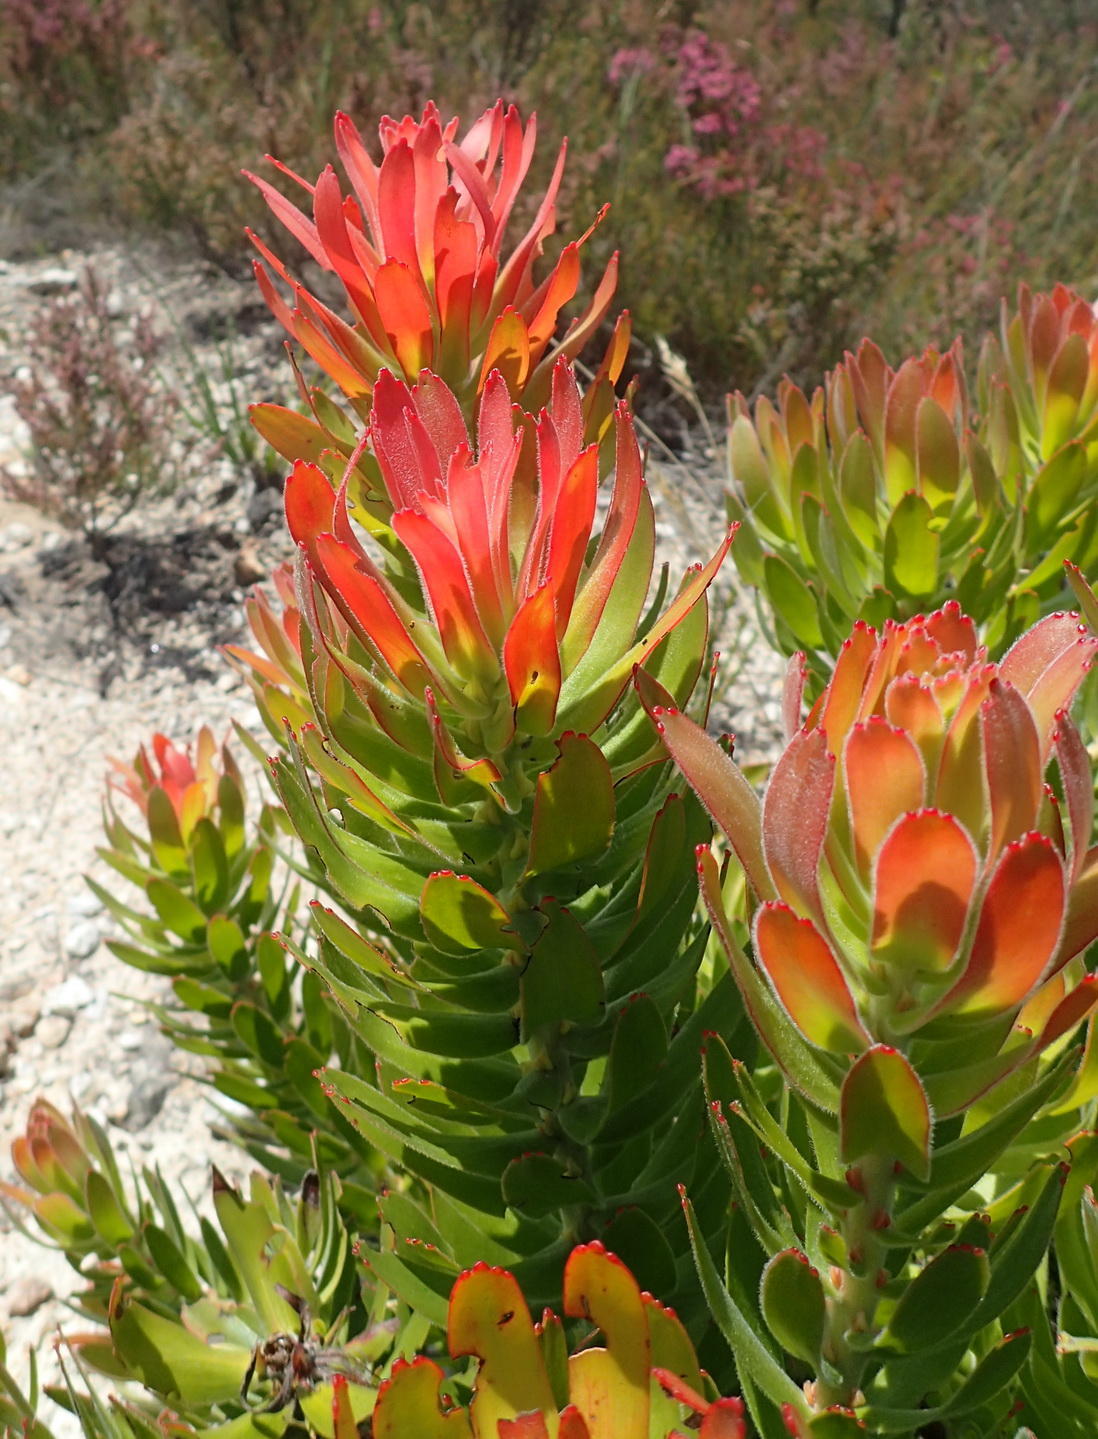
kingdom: Plantae
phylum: Tracheophyta
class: Magnoliopsida
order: Proteales
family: Proteaceae
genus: Mimetes
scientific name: Mimetes cucullatus
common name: Common pagoda
